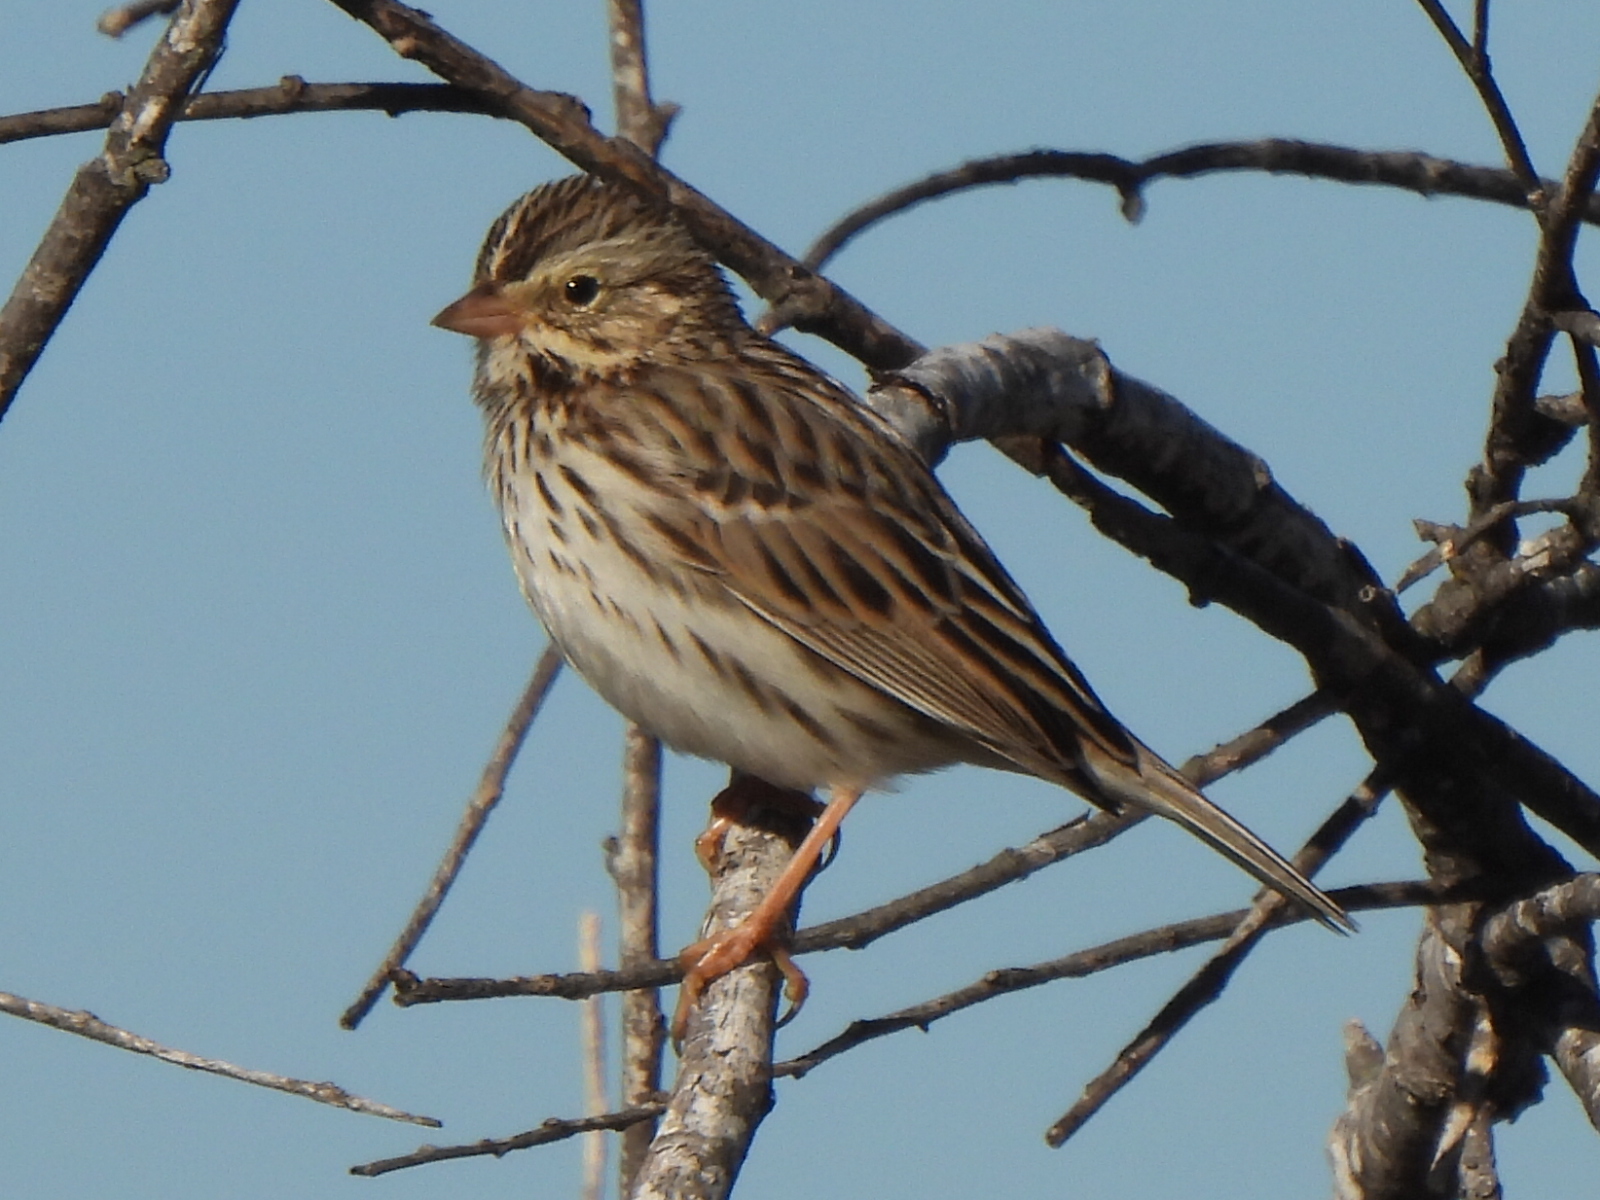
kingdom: Animalia
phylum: Chordata
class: Aves
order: Passeriformes
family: Passerellidae
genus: Passerculus
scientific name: Passerculus sandwichensis
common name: Savannah sparrow
